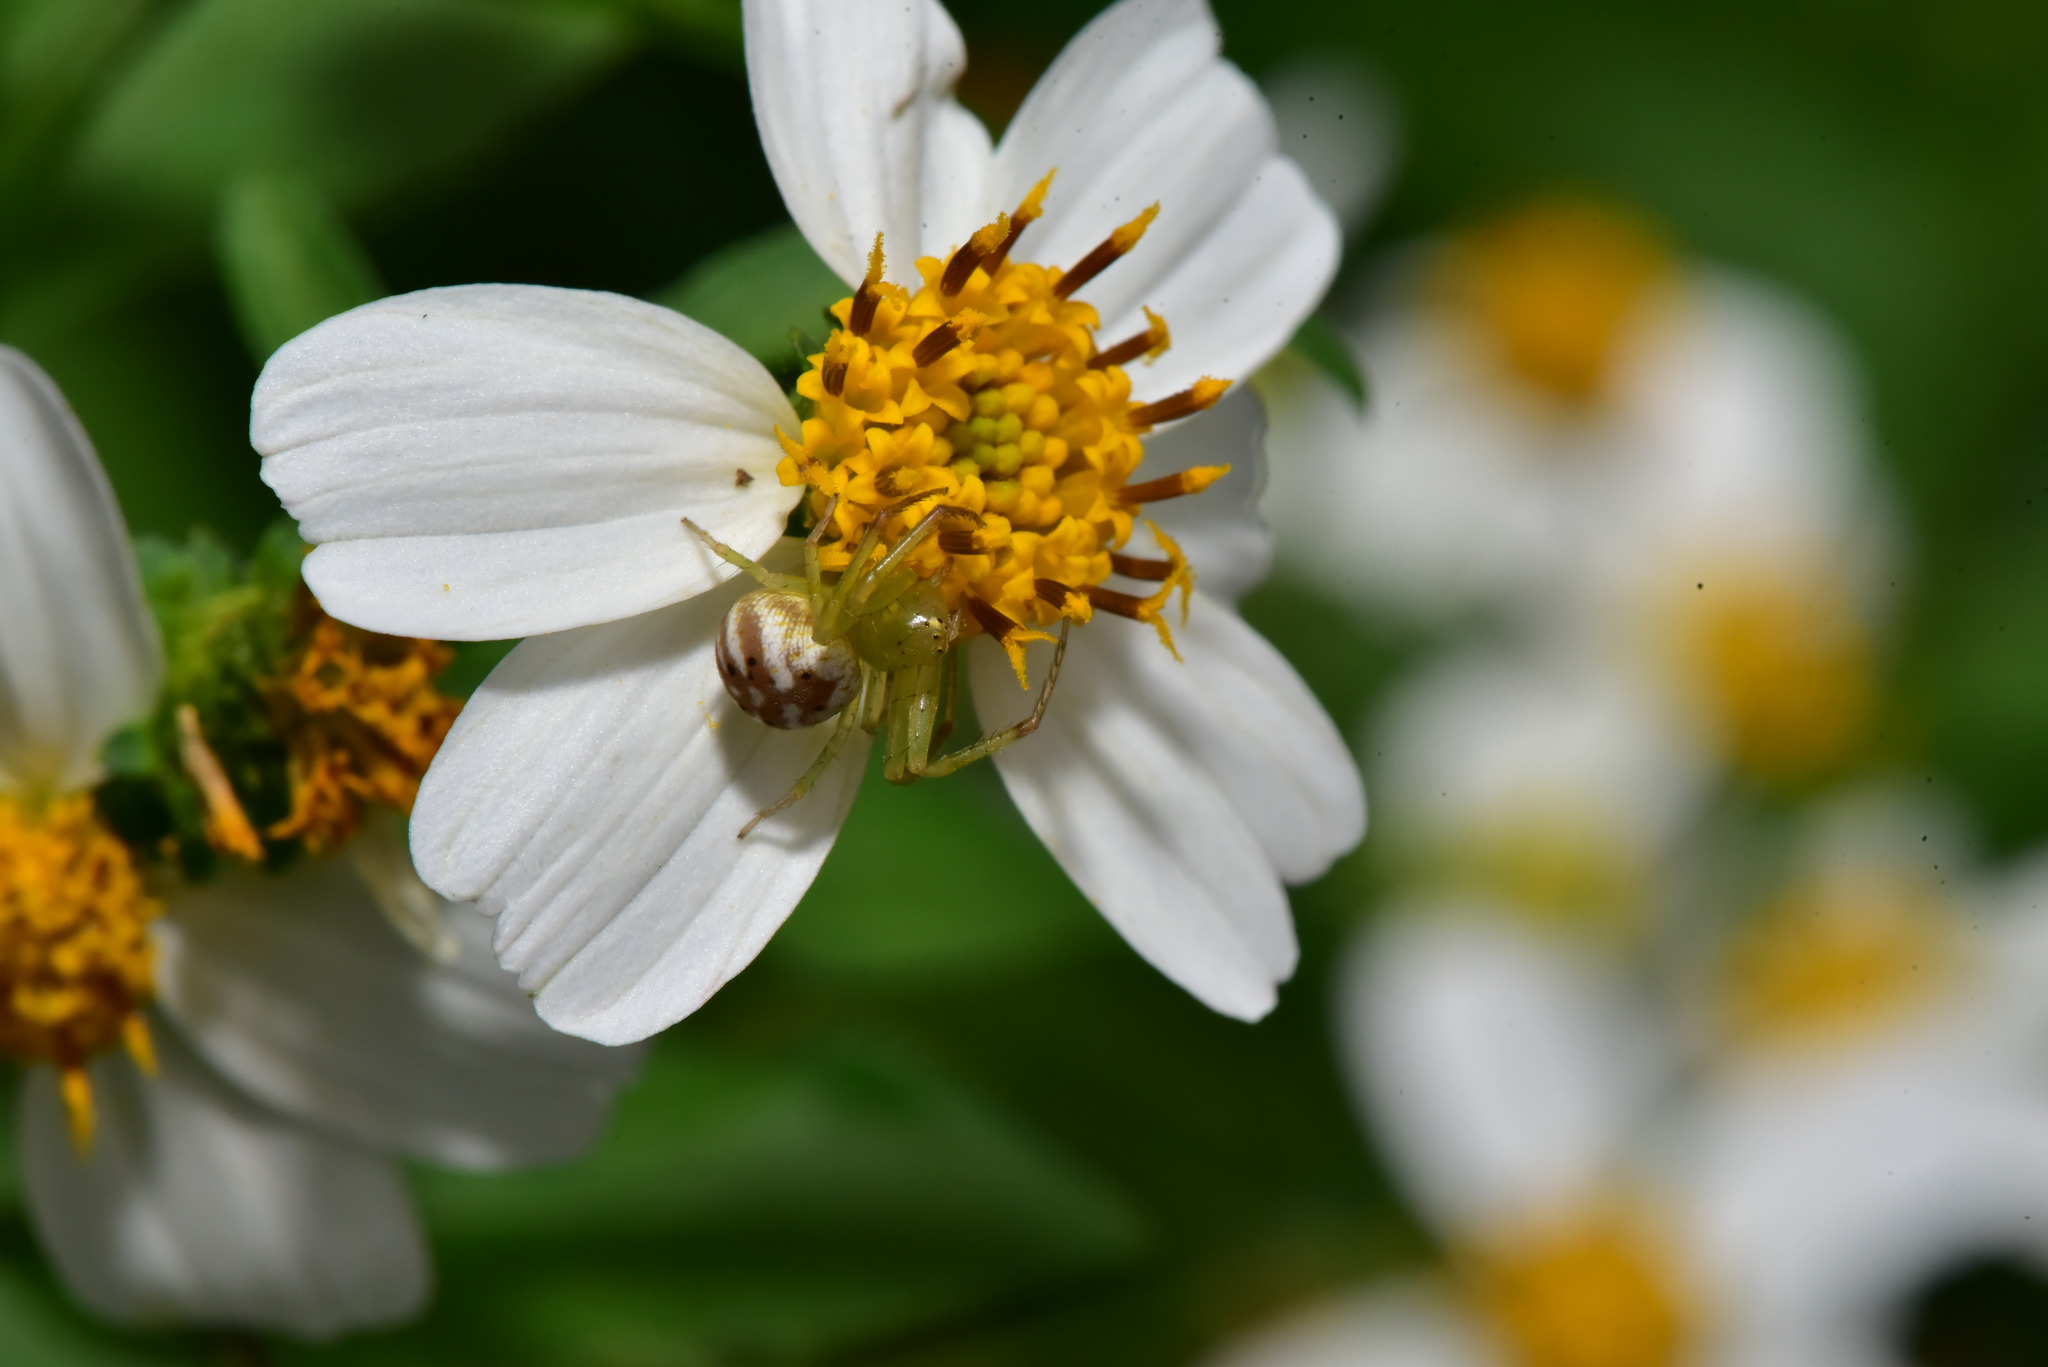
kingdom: Animalia
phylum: Arthropoda
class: Arachnida
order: Araneae
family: Thomisidae
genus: Diaea
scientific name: Diaea subdola
